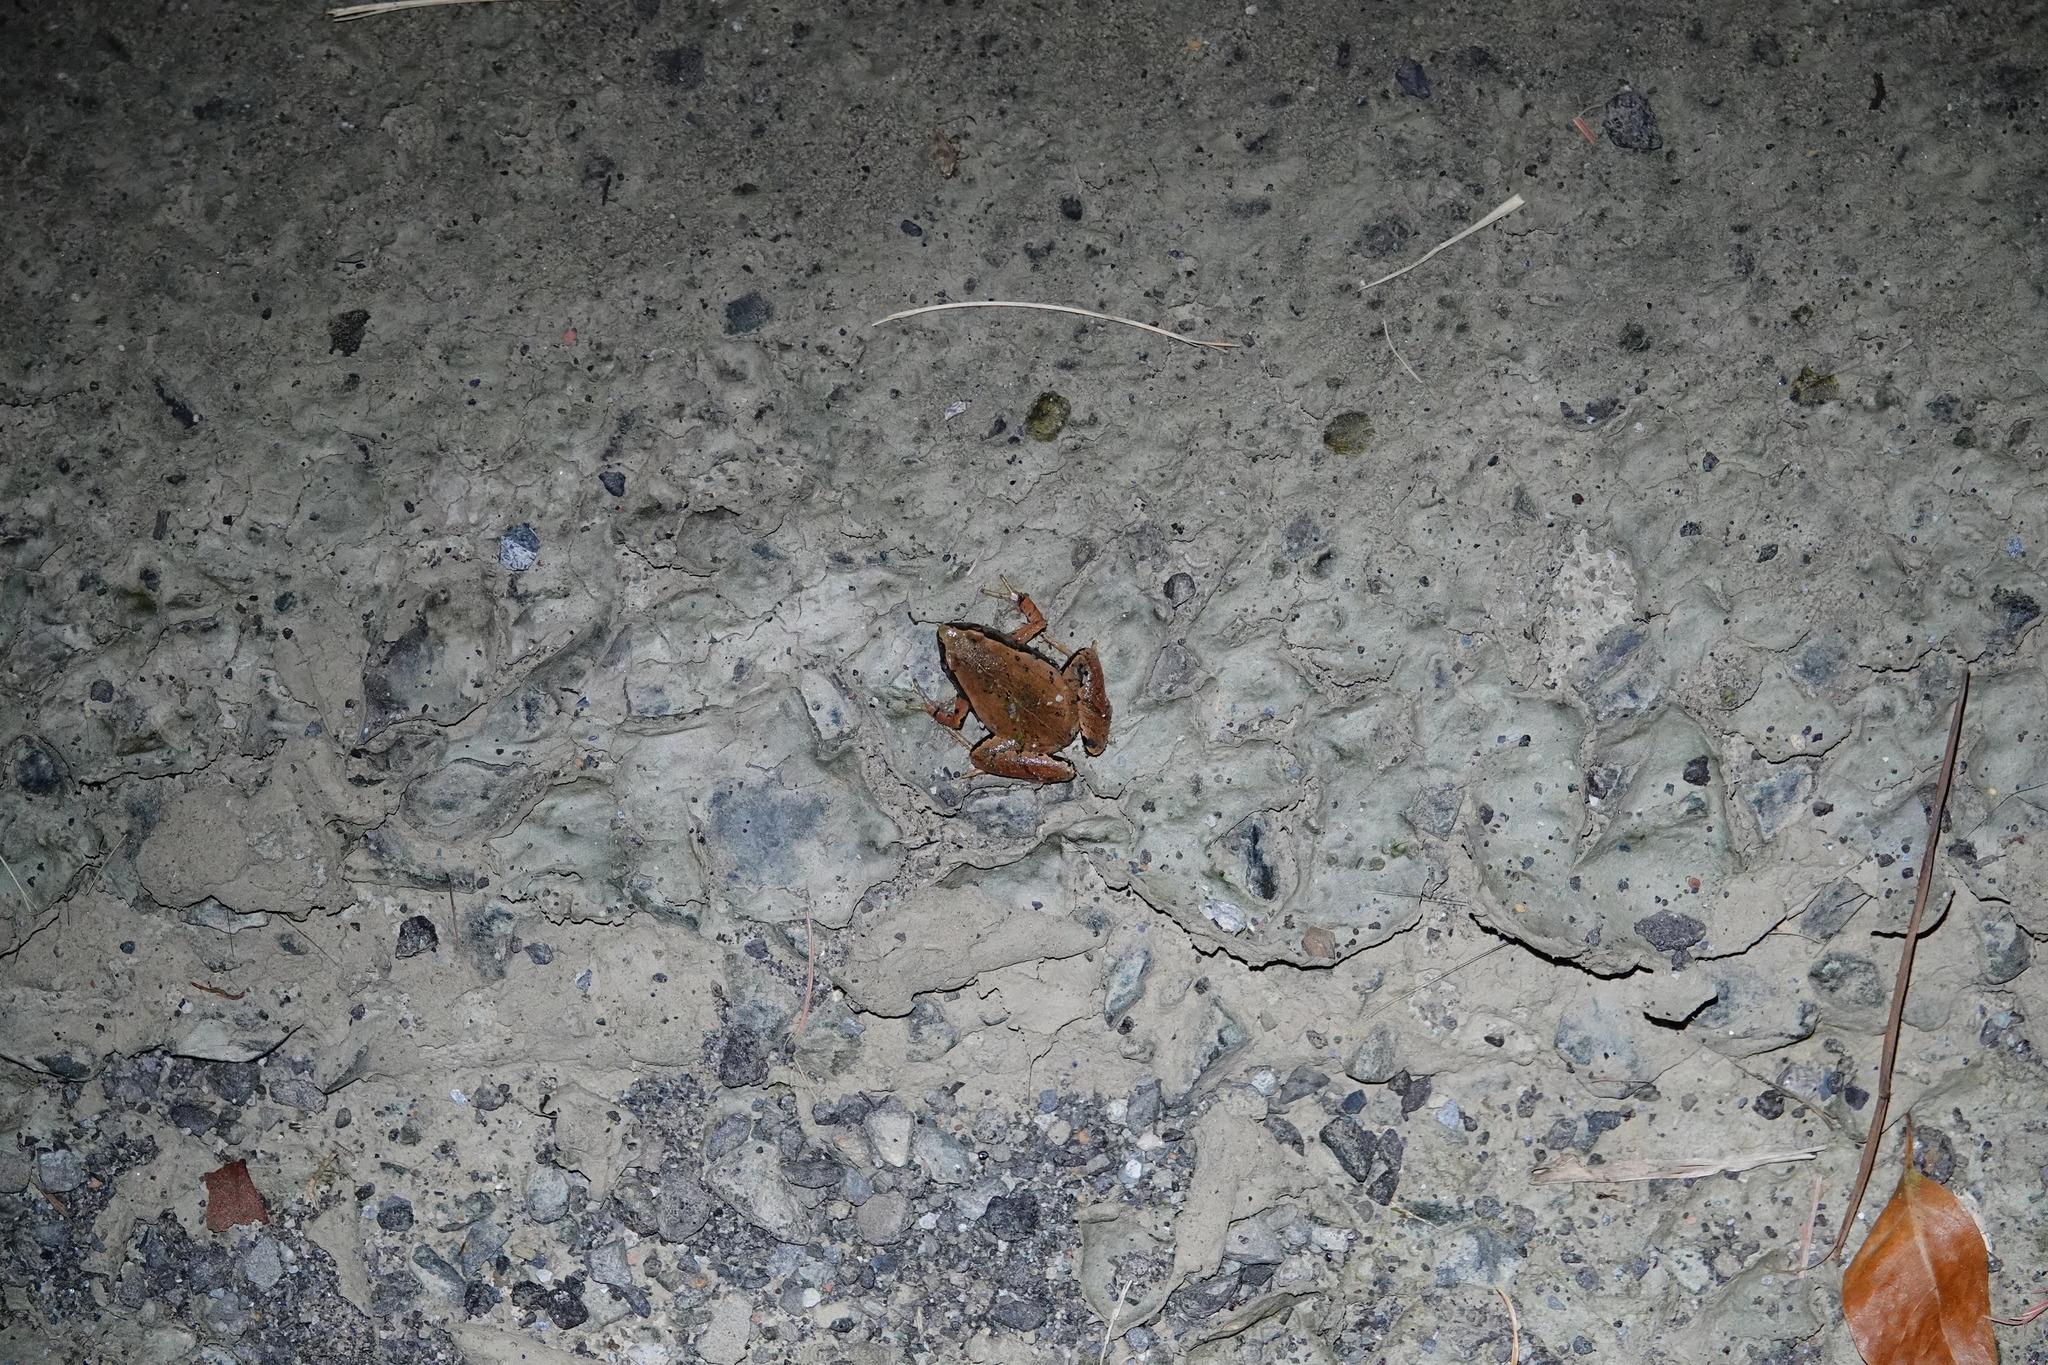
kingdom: Animalia
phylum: Chordata
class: Amphibia
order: Anura
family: Microhylidae
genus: Microhyla
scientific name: Microhyla heymonsi
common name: Taiwan rice frog,dark sided chorus frog
